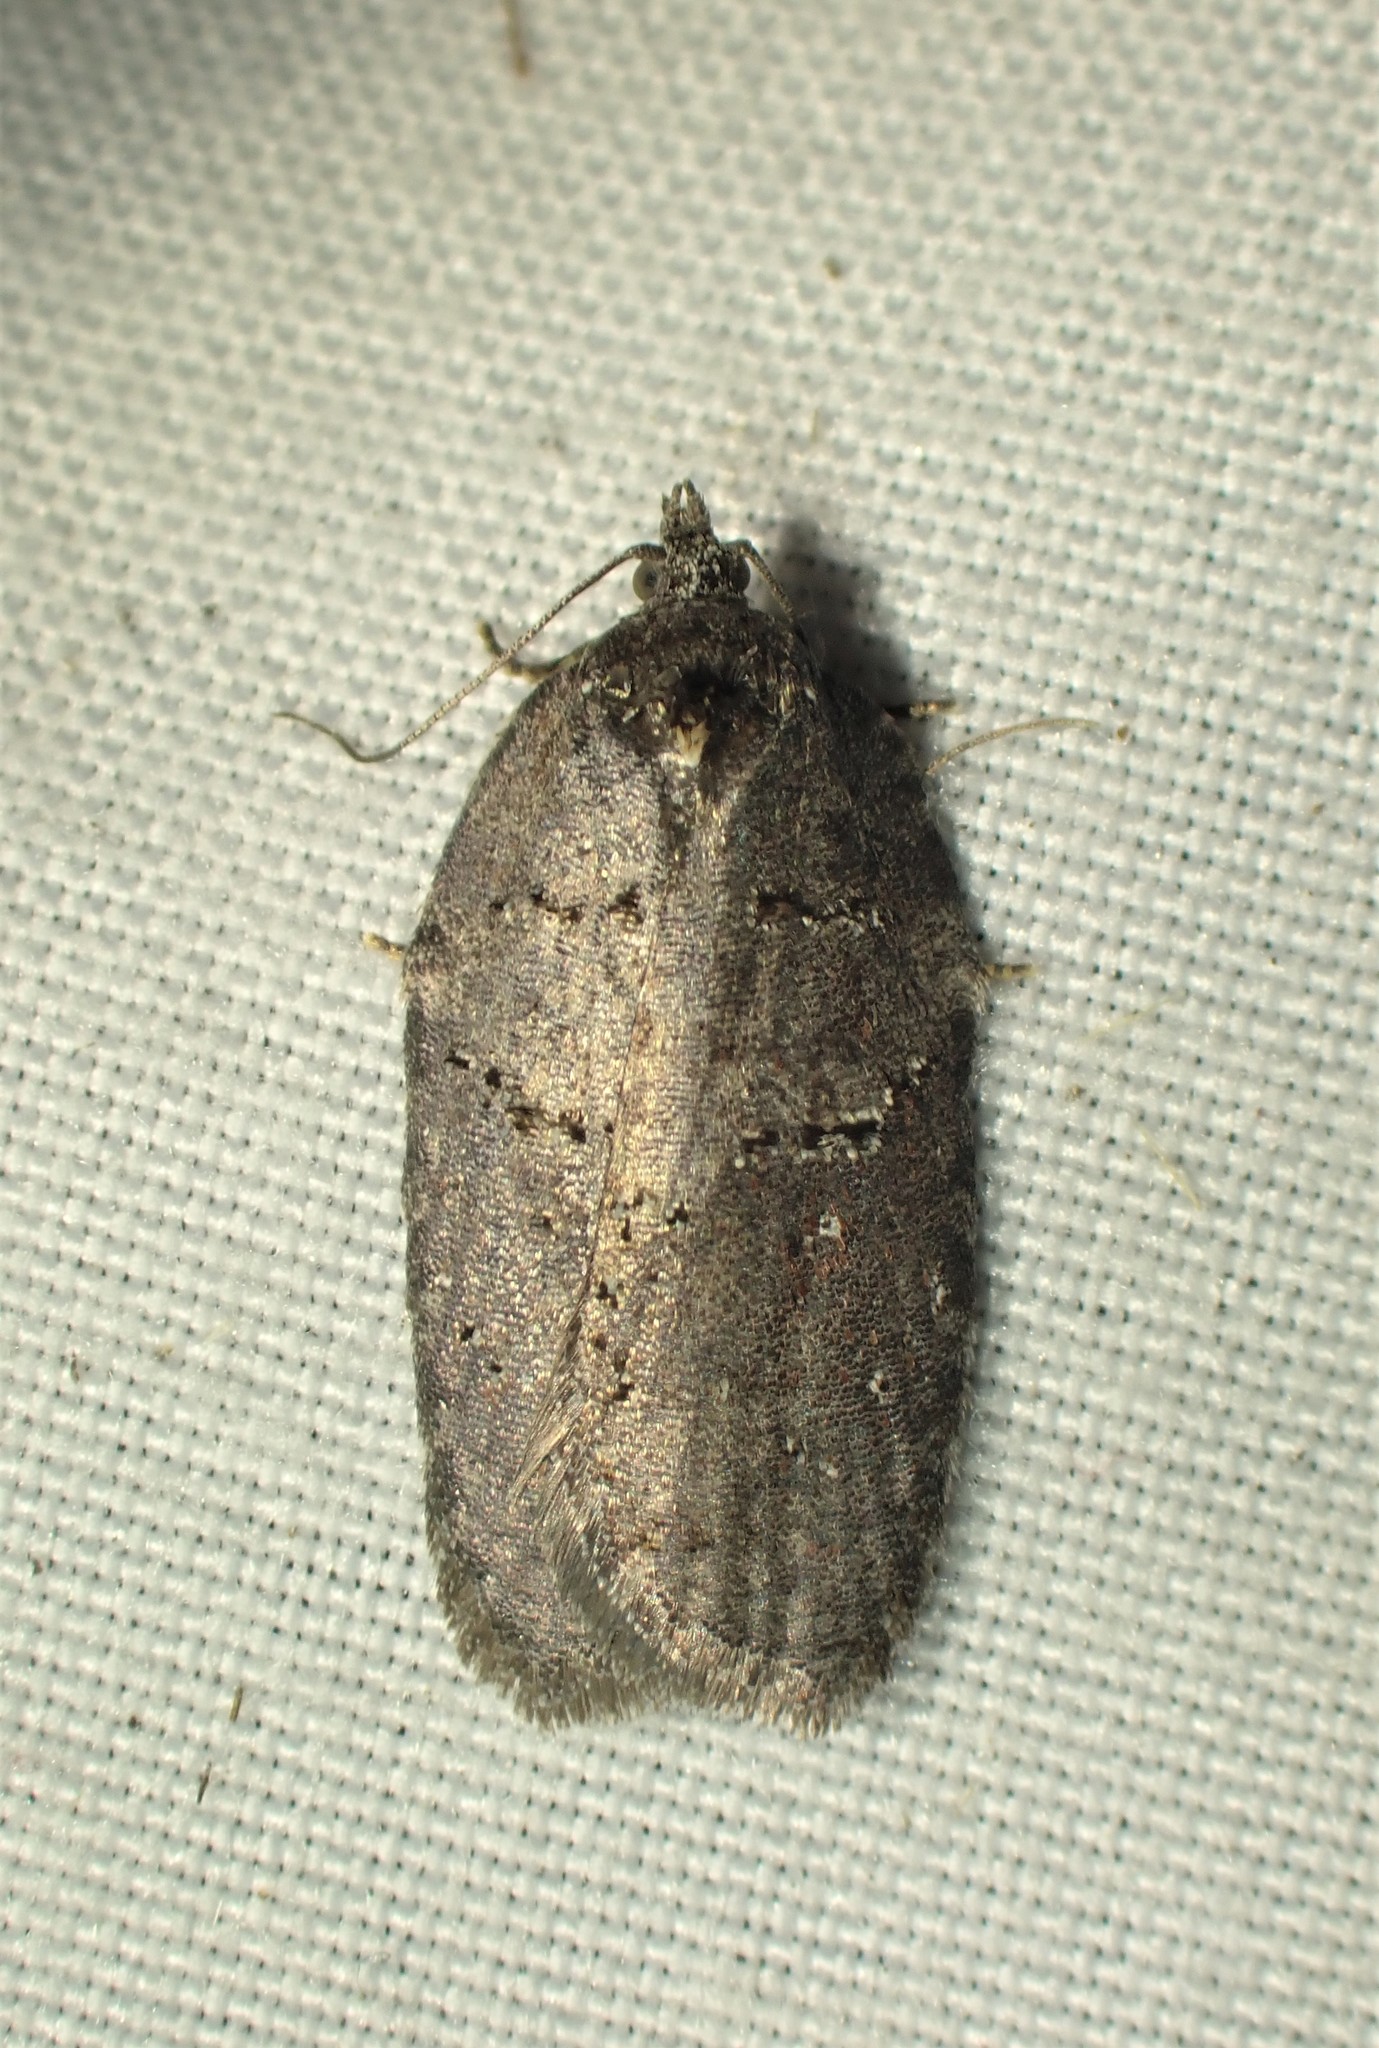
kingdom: Animalia
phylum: Arthropoda
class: Insecta
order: Lepidoptera
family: Tortricidae
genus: Acleris
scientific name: Acleris caliginosana
